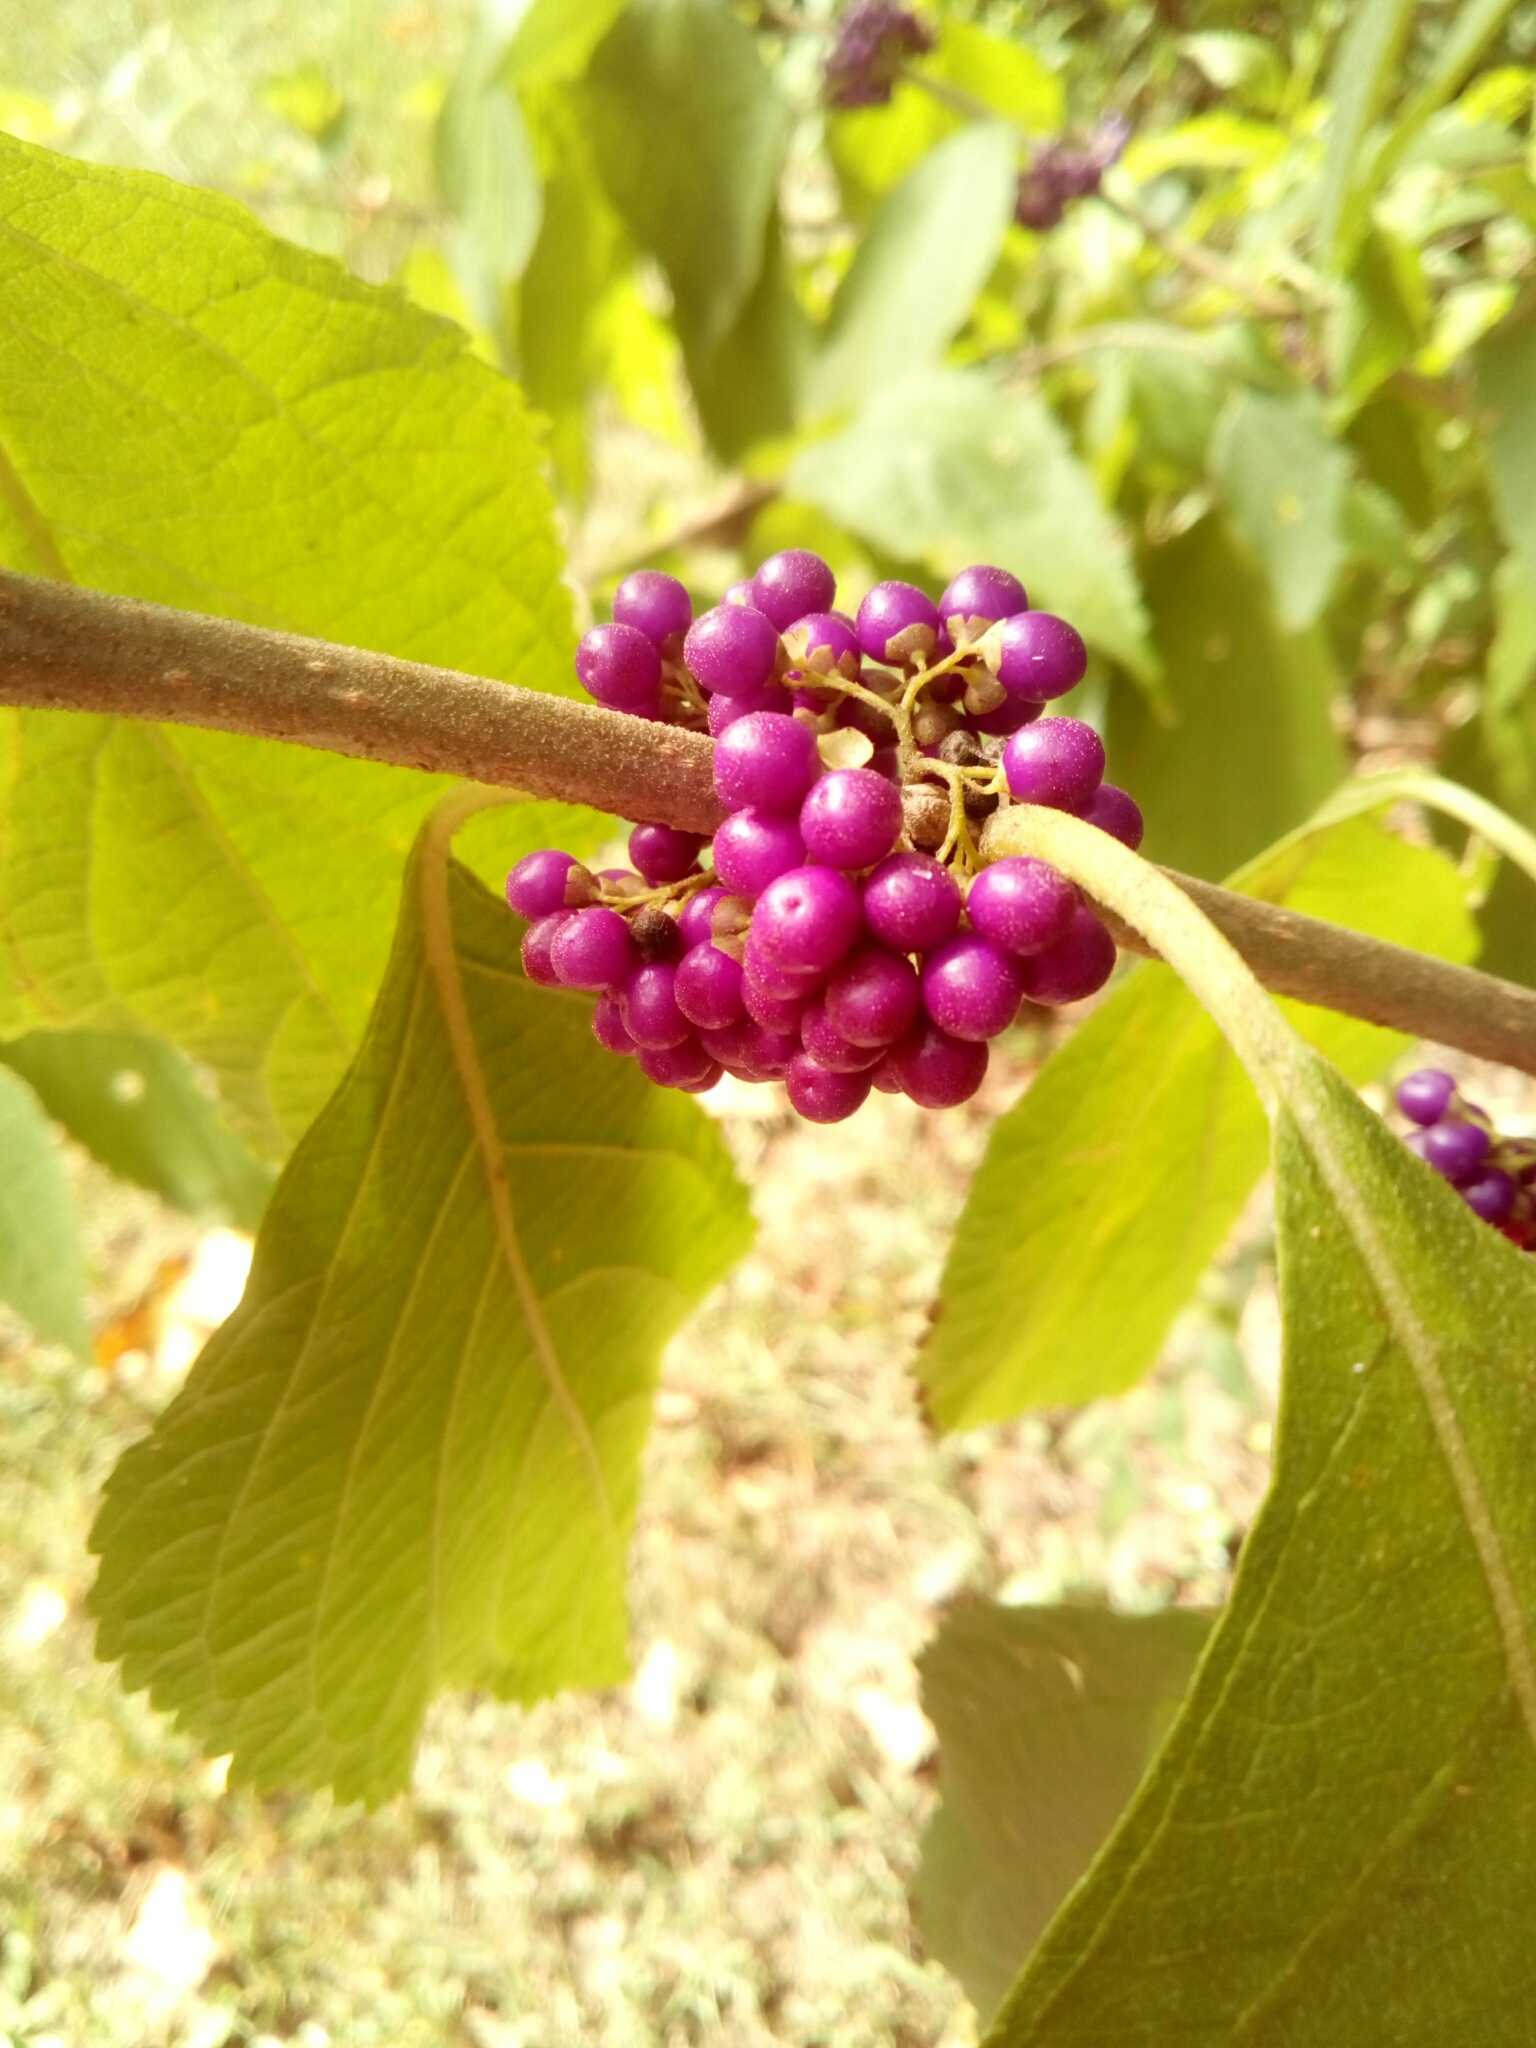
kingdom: Plantae
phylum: Tracheophyta
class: Magnoliopsida
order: Lamiales
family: Lamiaceae
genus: Callicarpa
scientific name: Callicarpa americana
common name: American beautyberry
